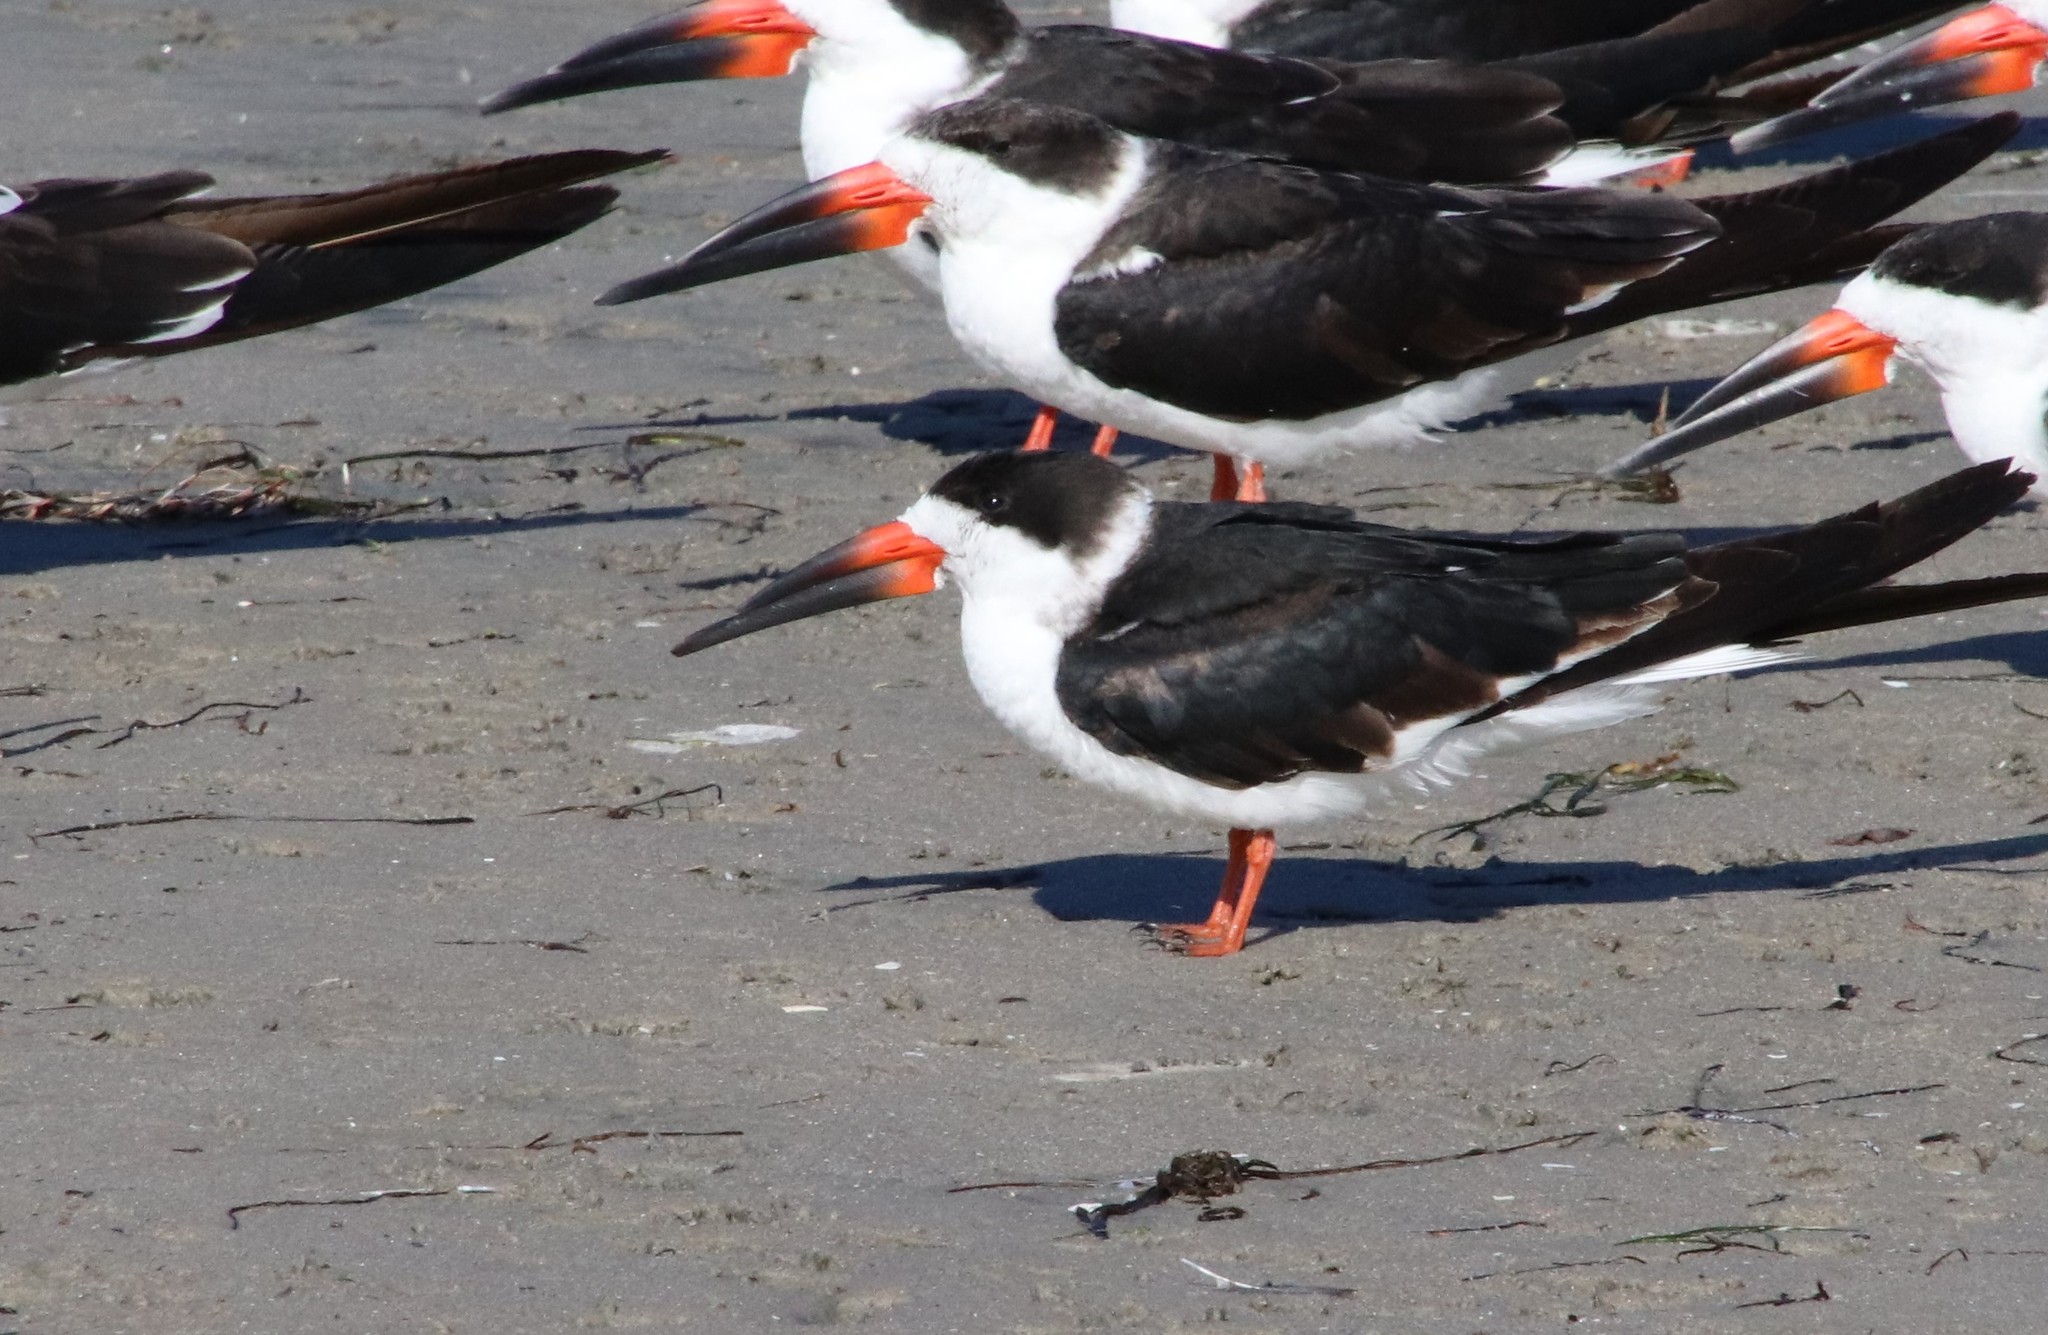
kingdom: Animalia
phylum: Chordata
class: Aves
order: Charadriiformes
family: Laridae
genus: Rynchops
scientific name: Rynchops niger
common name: Black skimmer
